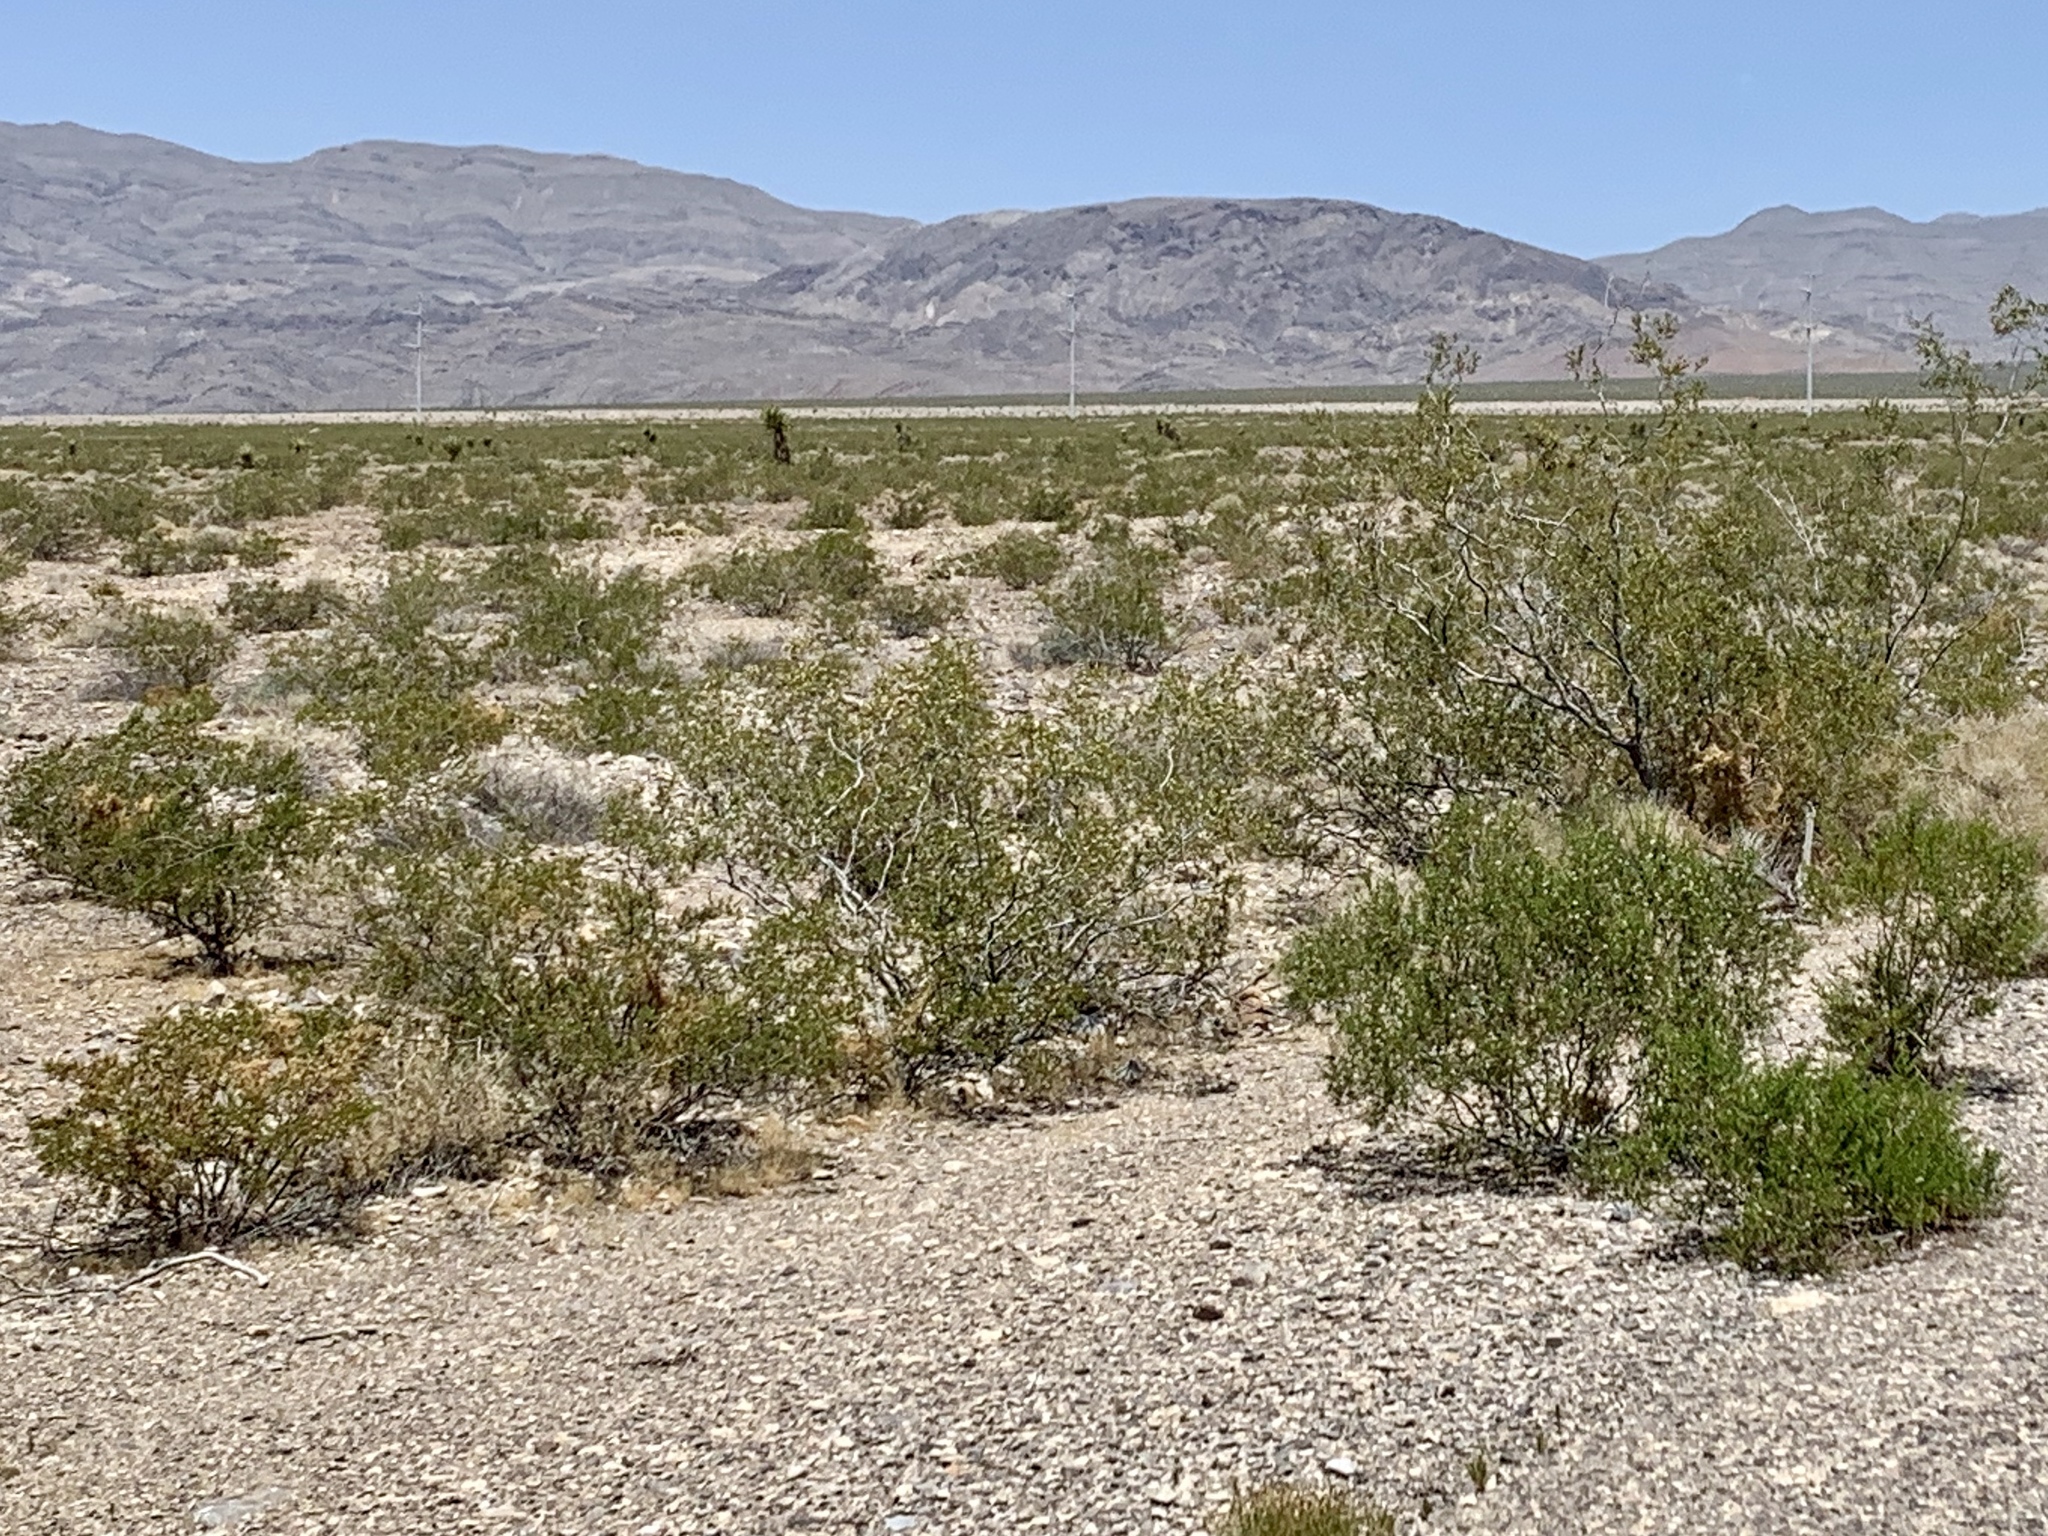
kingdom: Plantae
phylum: Tracheophyta
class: Magnoliopsida
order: Zygophyllales
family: Zygophyllaceae
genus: Larrea
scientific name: Larrea tridentata
